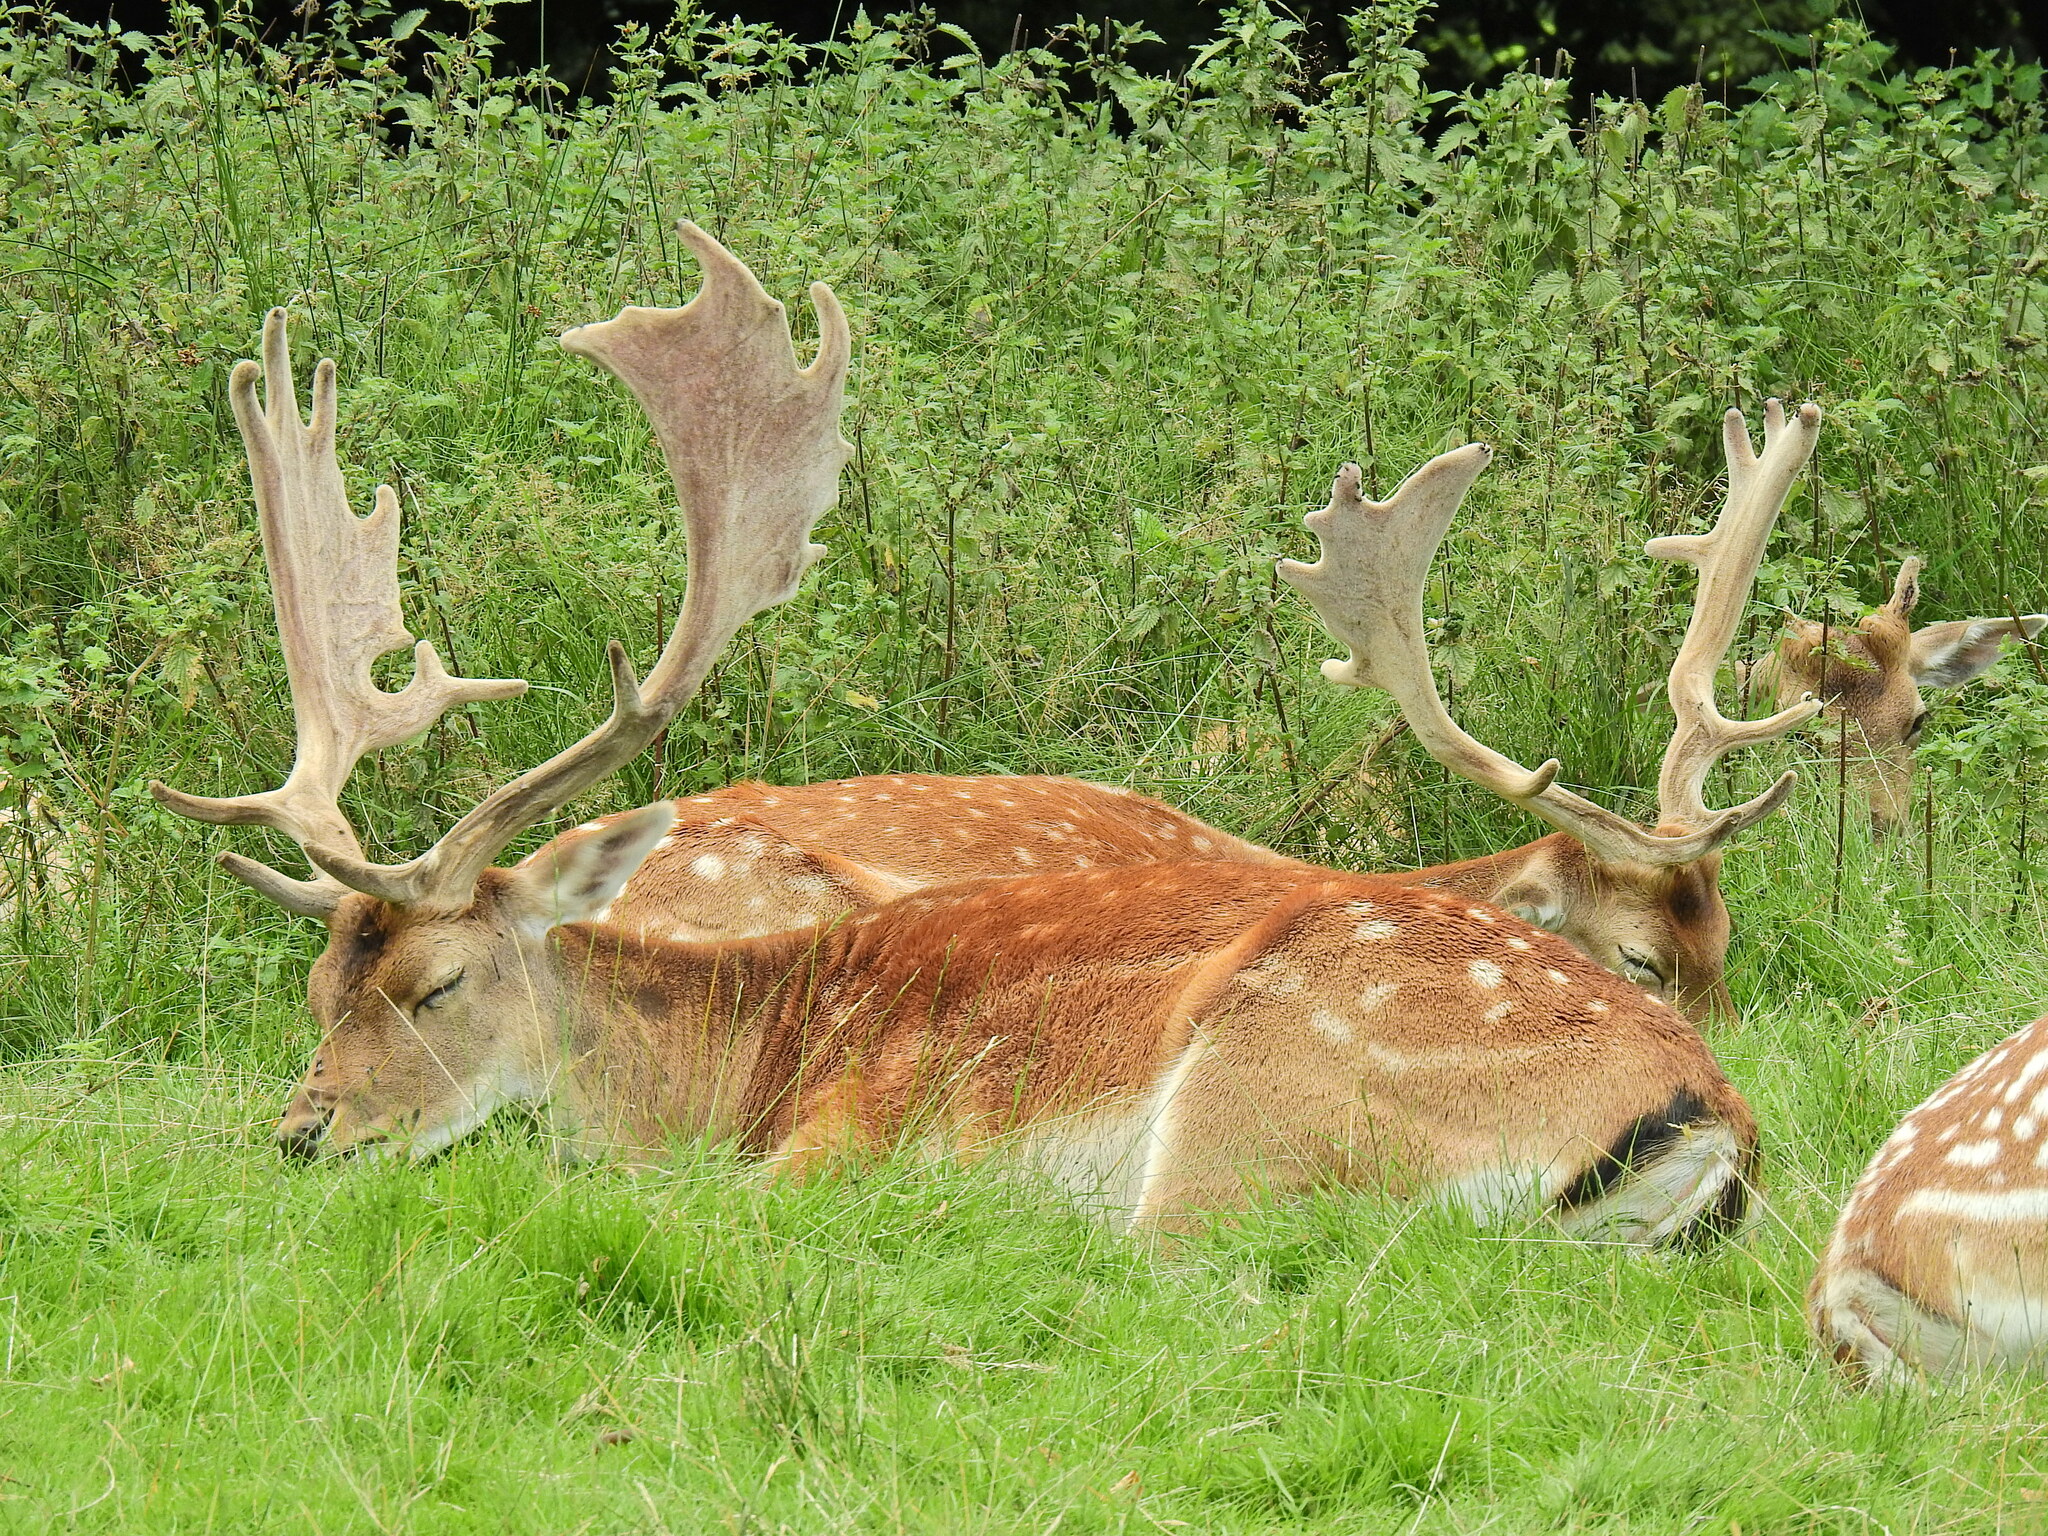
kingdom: Animalia
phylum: Chordata
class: Mammalia
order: Artiodactyla
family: Cervidae
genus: Dama
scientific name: Dama dama
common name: Fallow deer
